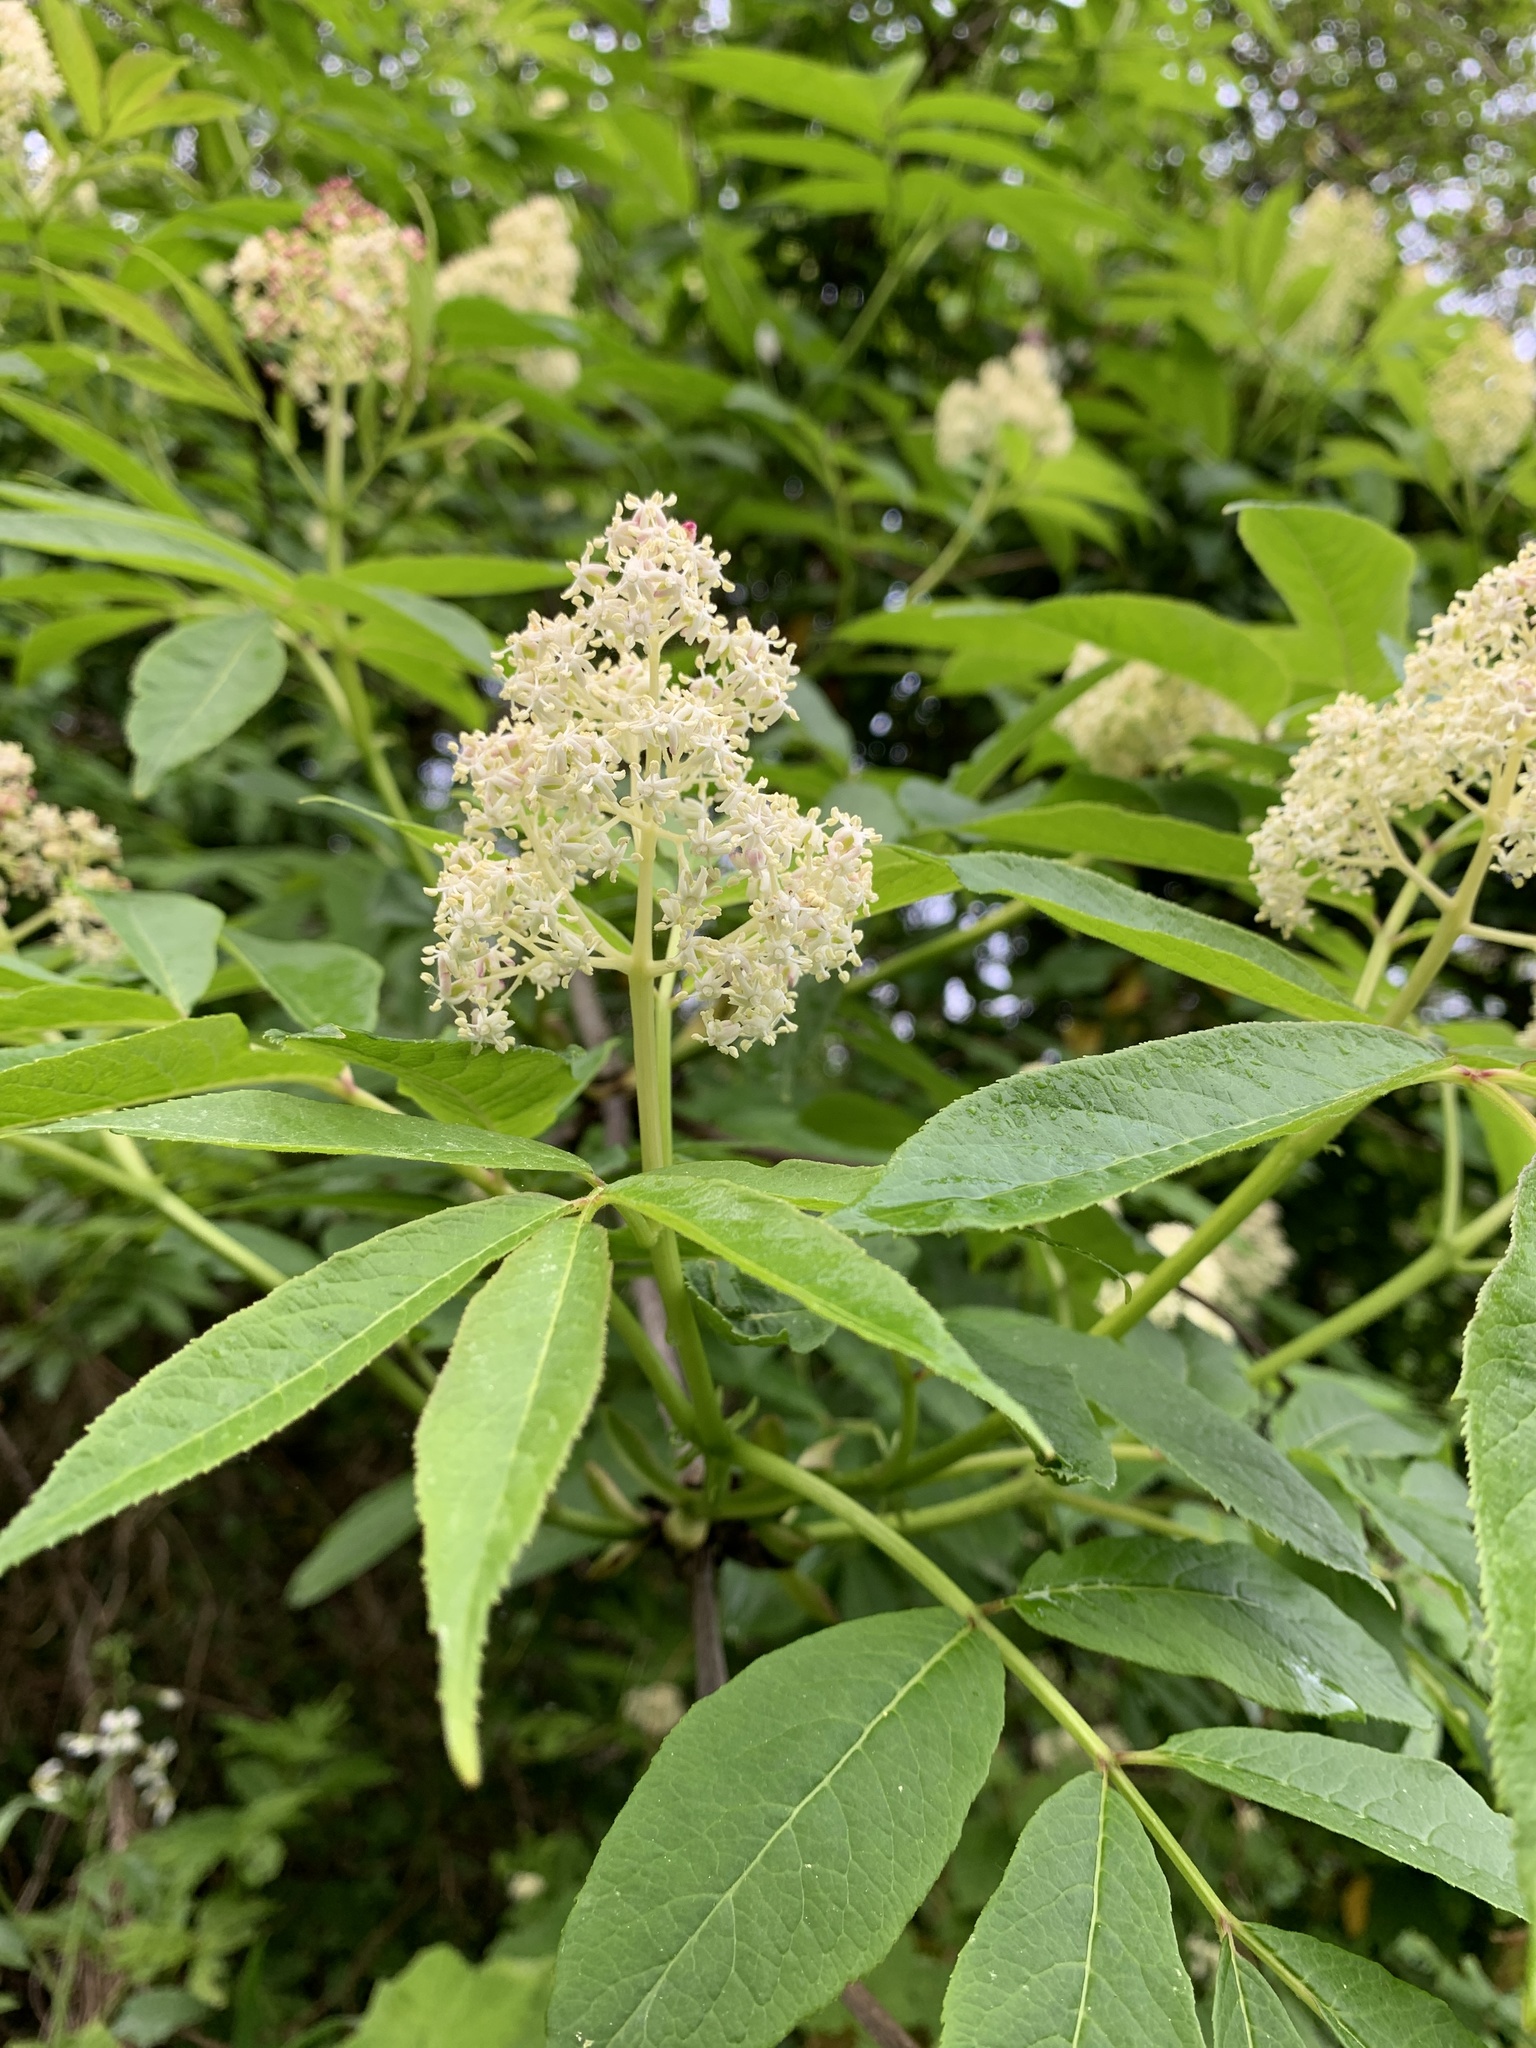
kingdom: Plantae
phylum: Tracheophyta
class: Magnoliopsida
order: Dipsacales
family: Viburnaceae
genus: Sambucus
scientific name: Sambucus racemosa
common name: Red-berried elder
